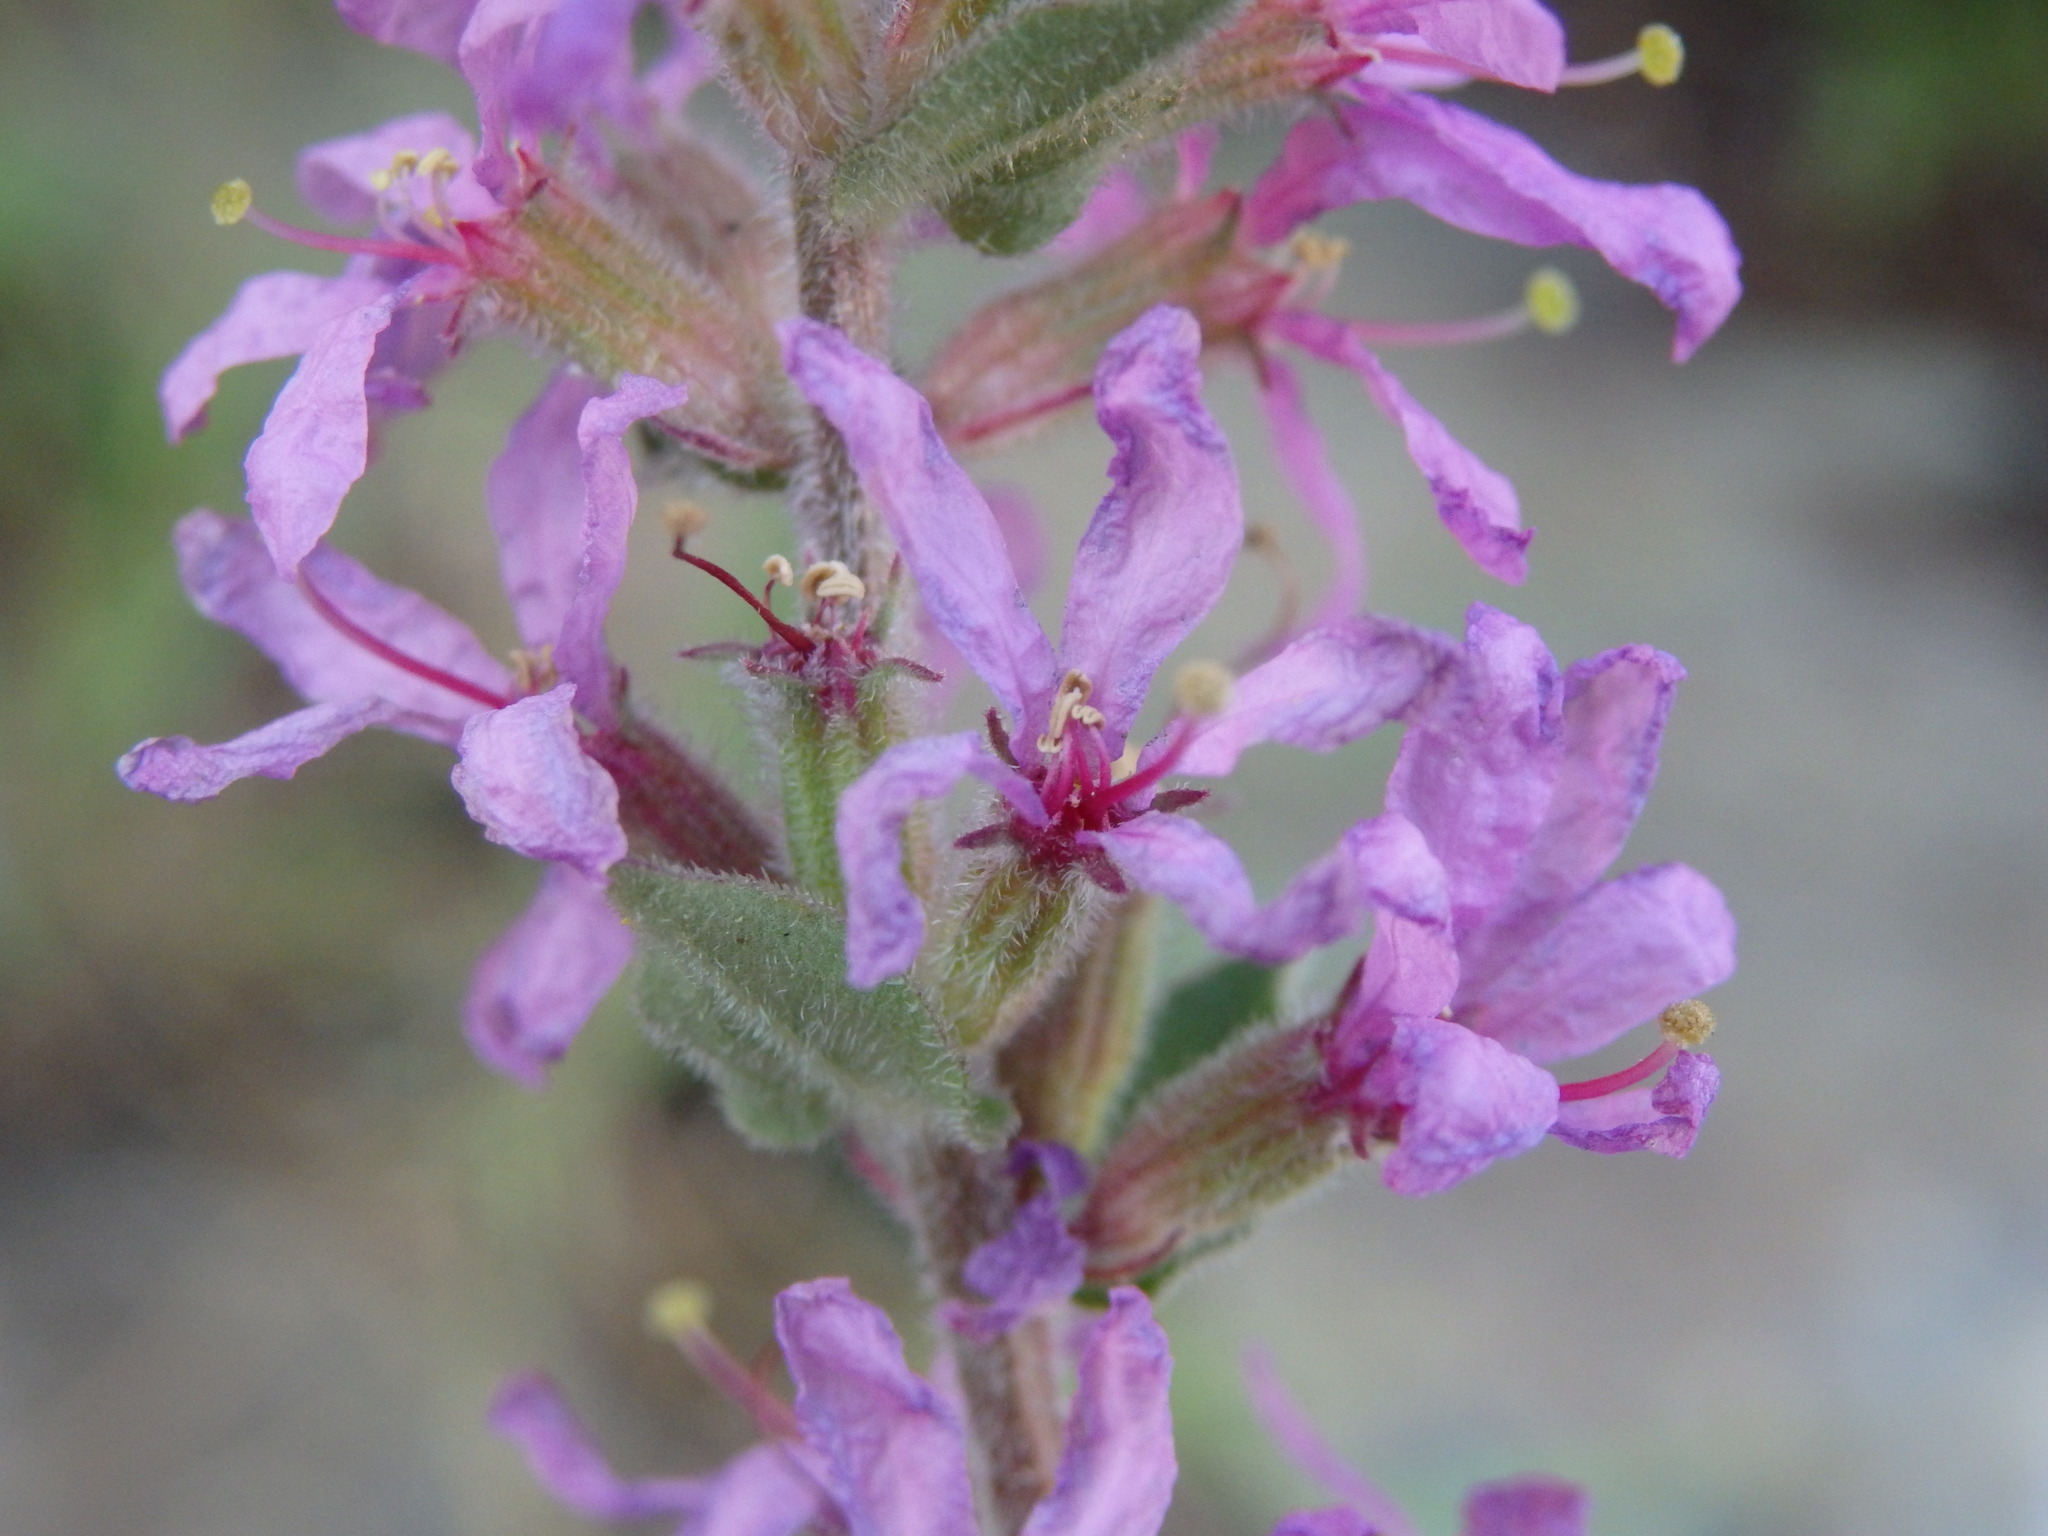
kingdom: Plantae
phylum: Tracheophyta
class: Magnoliopsida
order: Myrtales
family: Lythraceae
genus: Lythrum
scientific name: Lythrum salicaria
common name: Purple loosestrife
